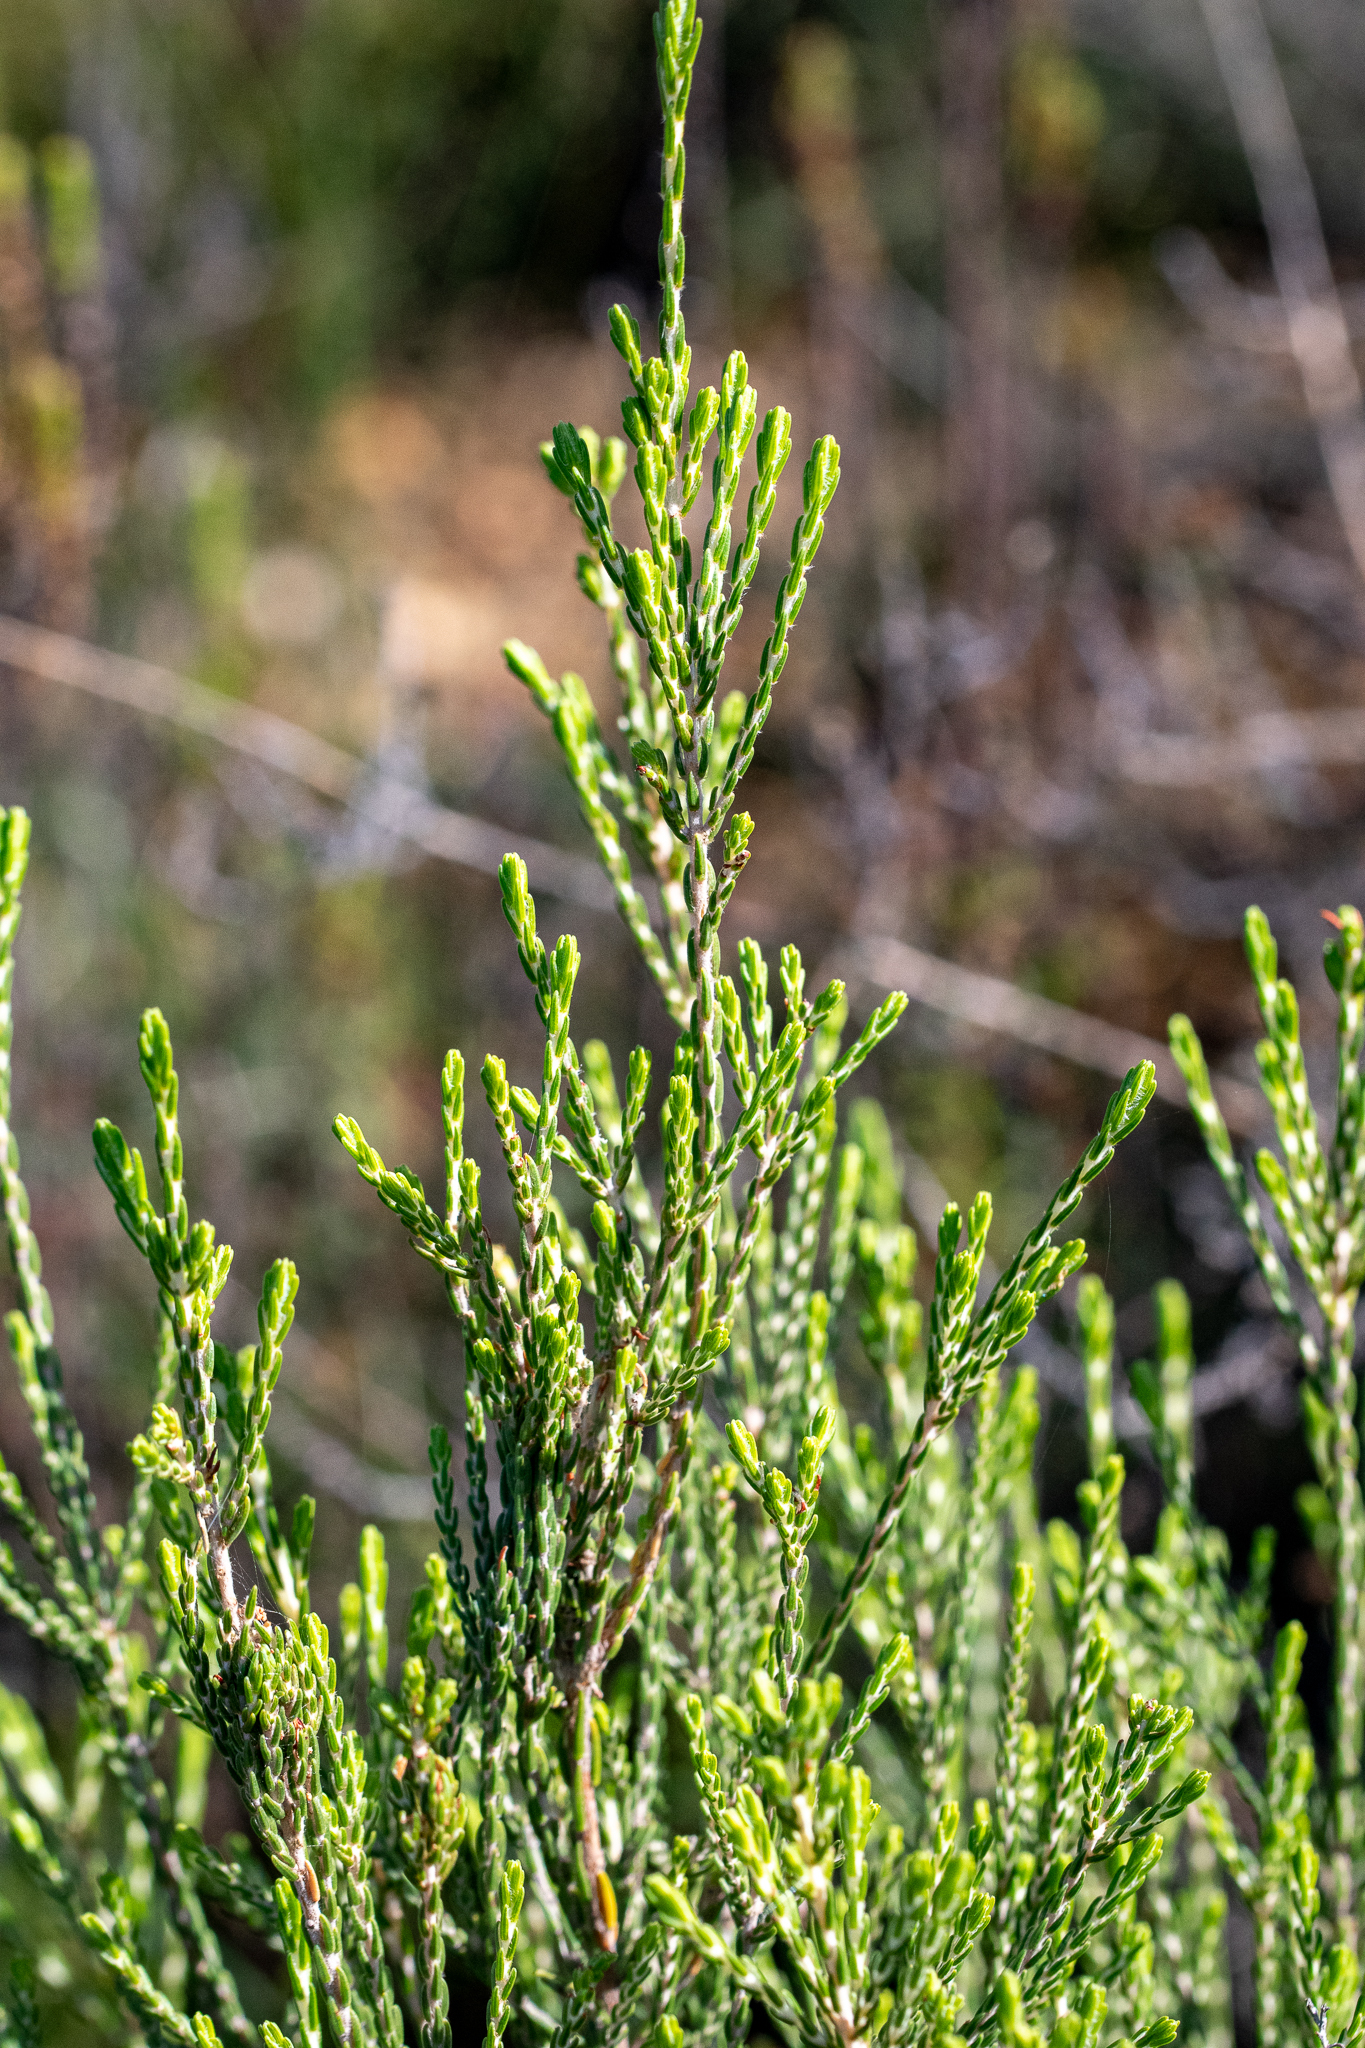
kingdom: Plantae
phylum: Tracheophyta
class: Magnoliopsida
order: Malvales
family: Thymelaeaceae
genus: Passerina
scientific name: Passerina corymbosa
